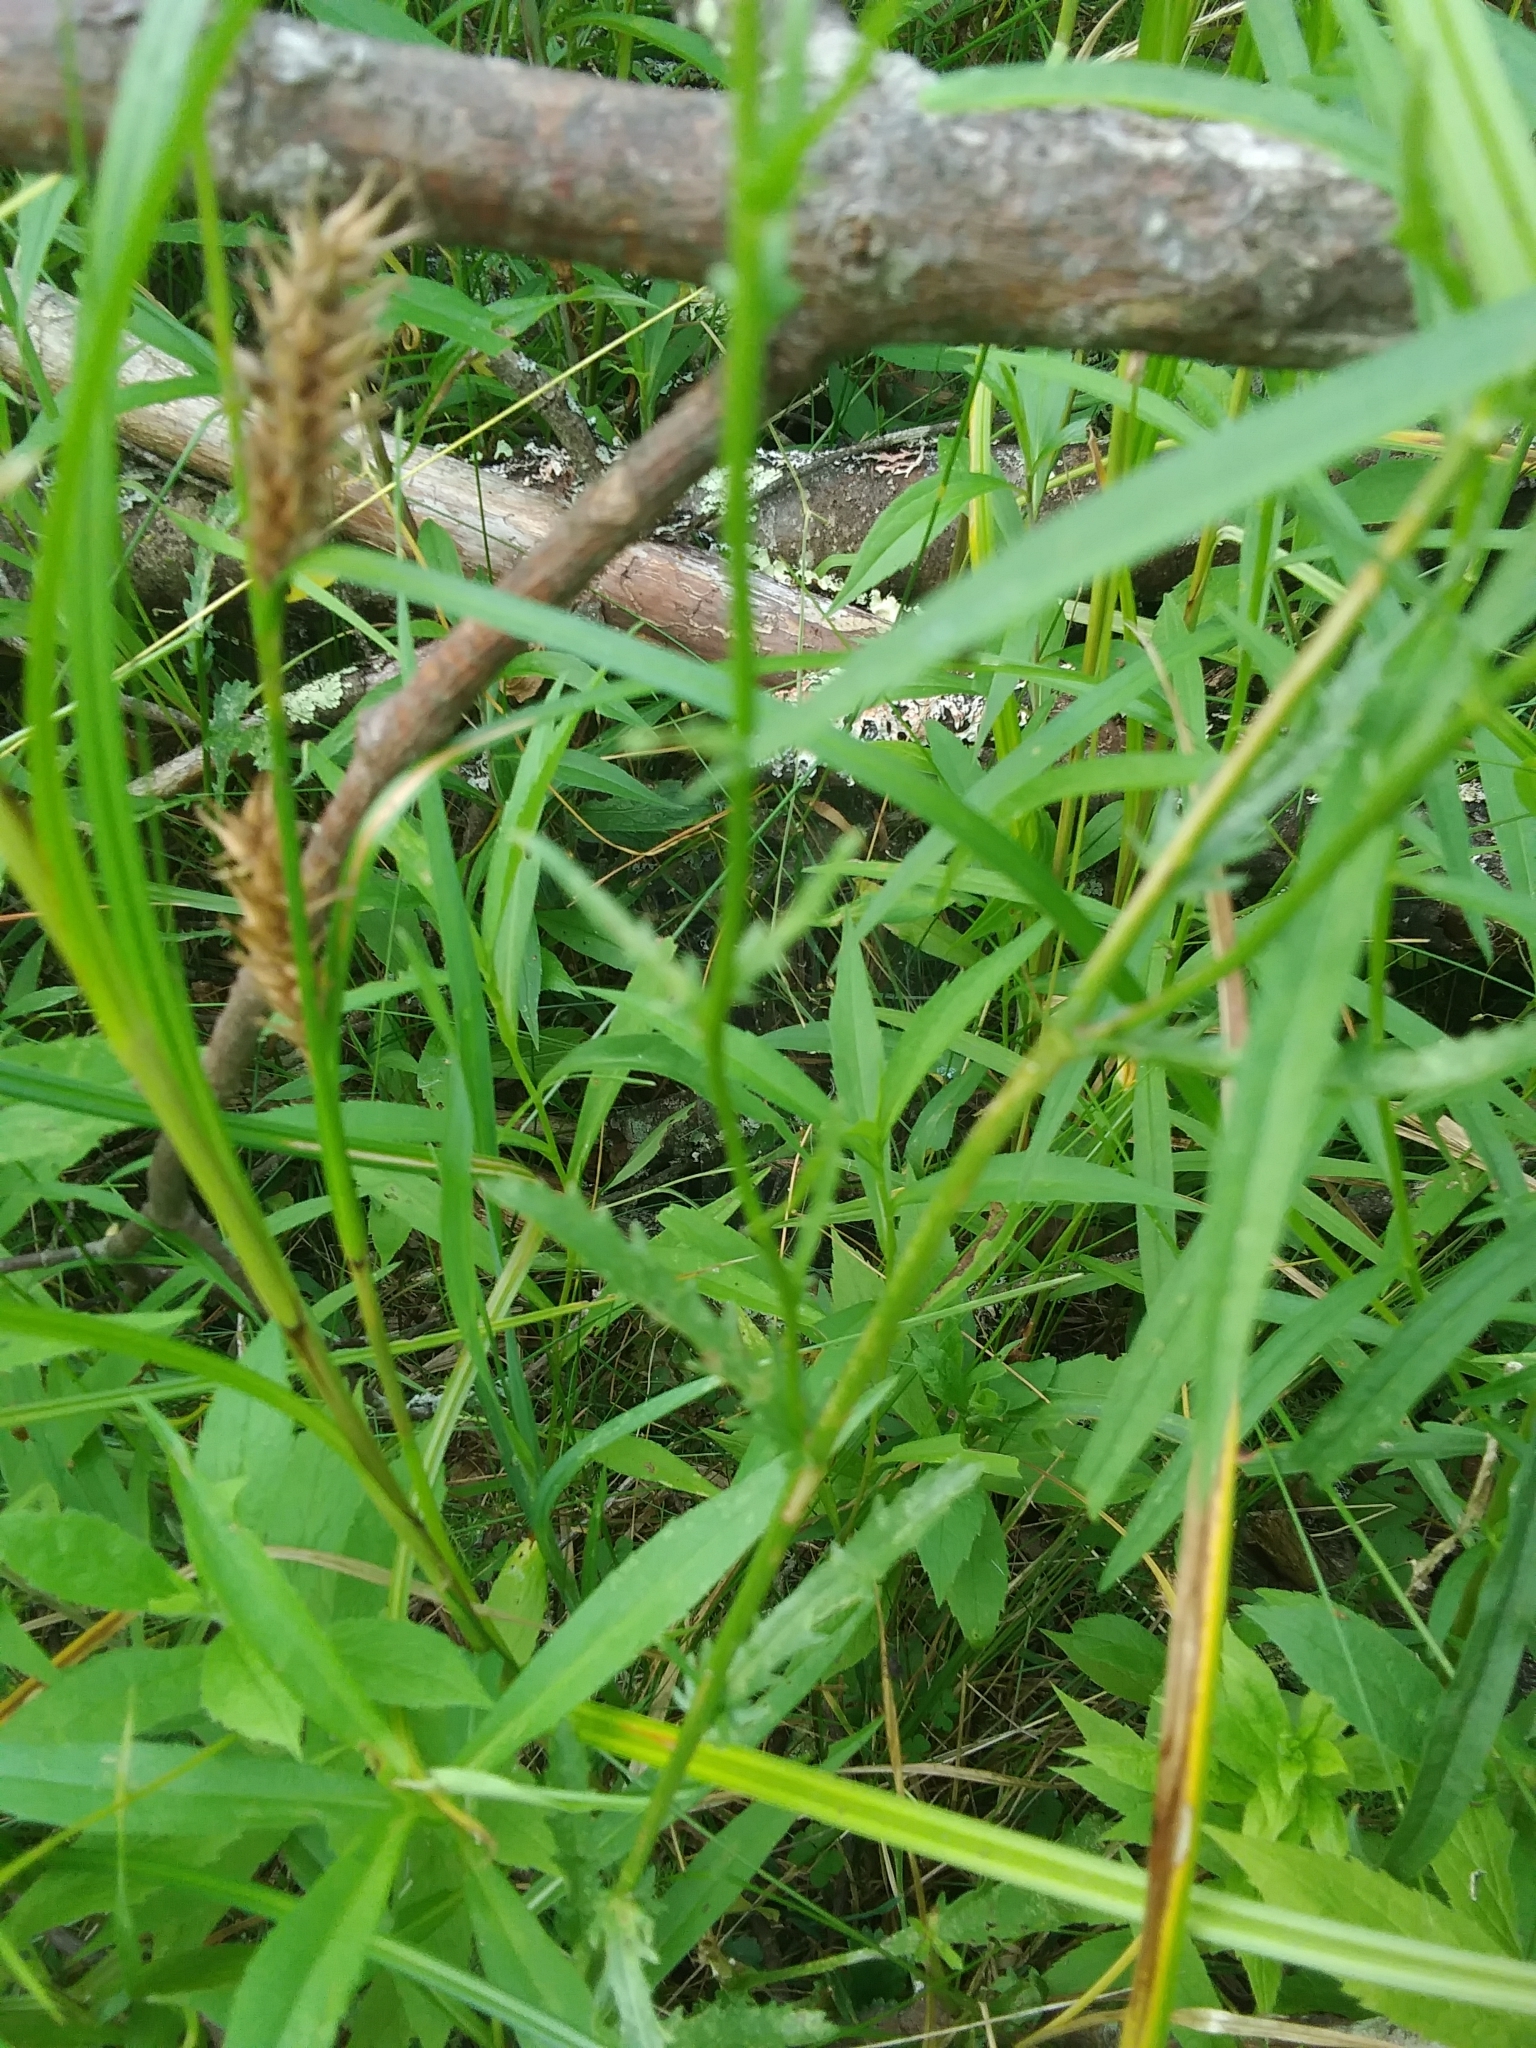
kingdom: Plantae
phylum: Tracheophyta
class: Magnoliopsida
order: Asterales
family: Asteraceae
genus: Leucanthemum
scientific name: Leucanthemum vulgare
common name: Oxeye daisy
